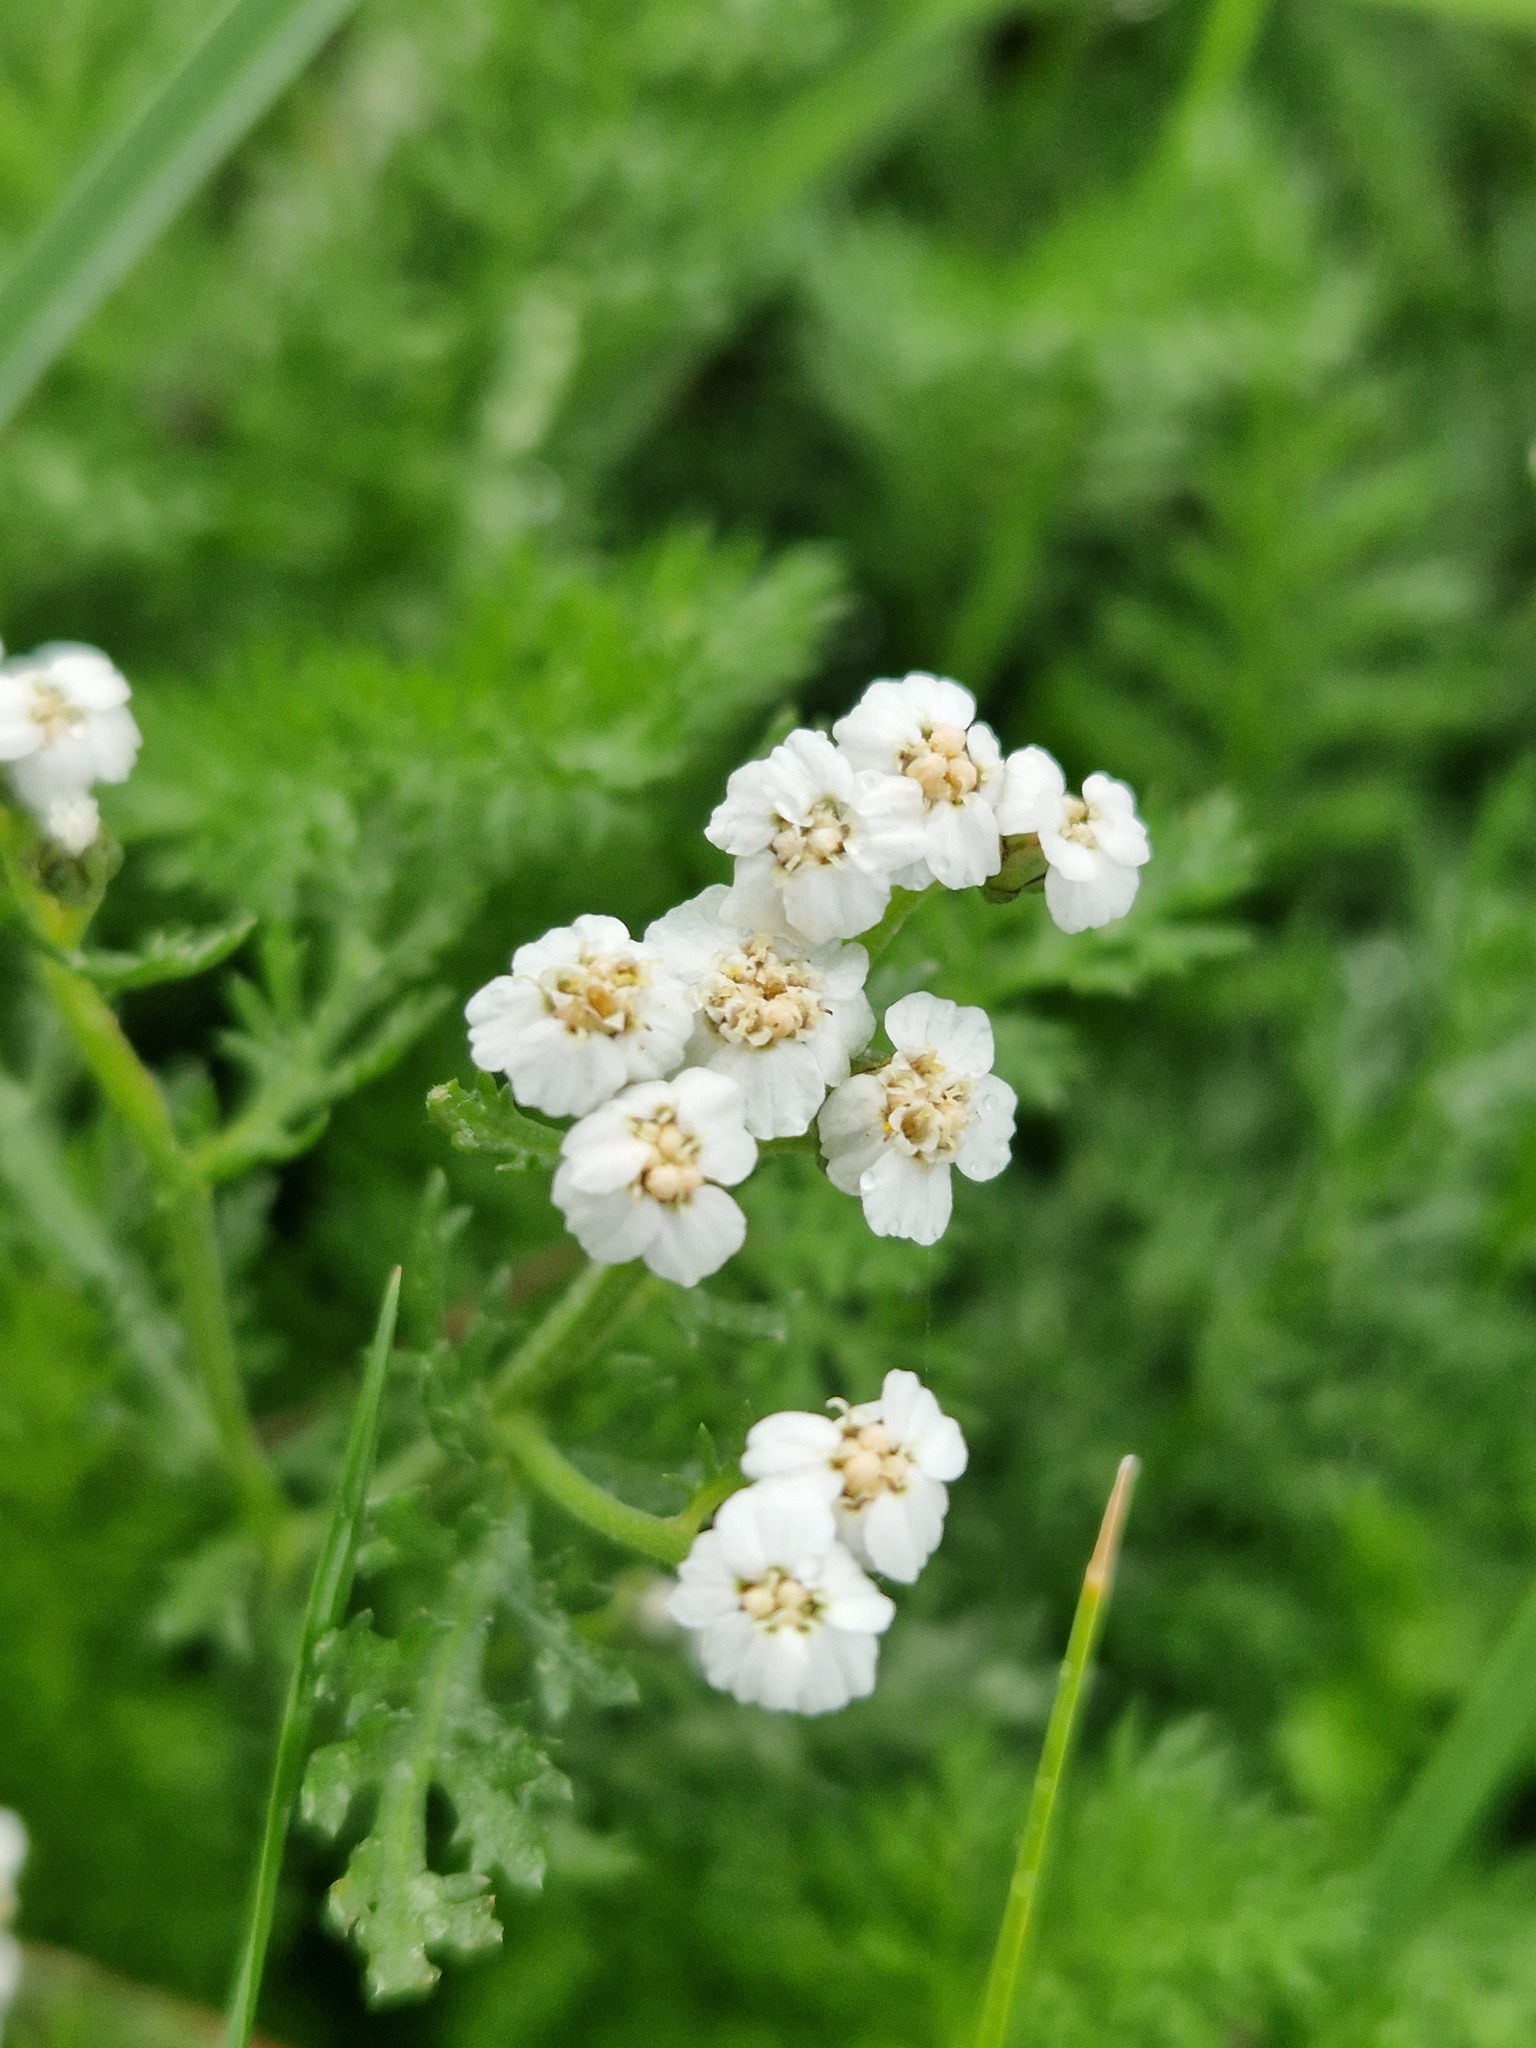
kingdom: Plantae
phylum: Tracheophyta
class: Magnoliopsida
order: Asterales
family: Asteraceae
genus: Achillea
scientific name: Achillea millefolium
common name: Yarrow
